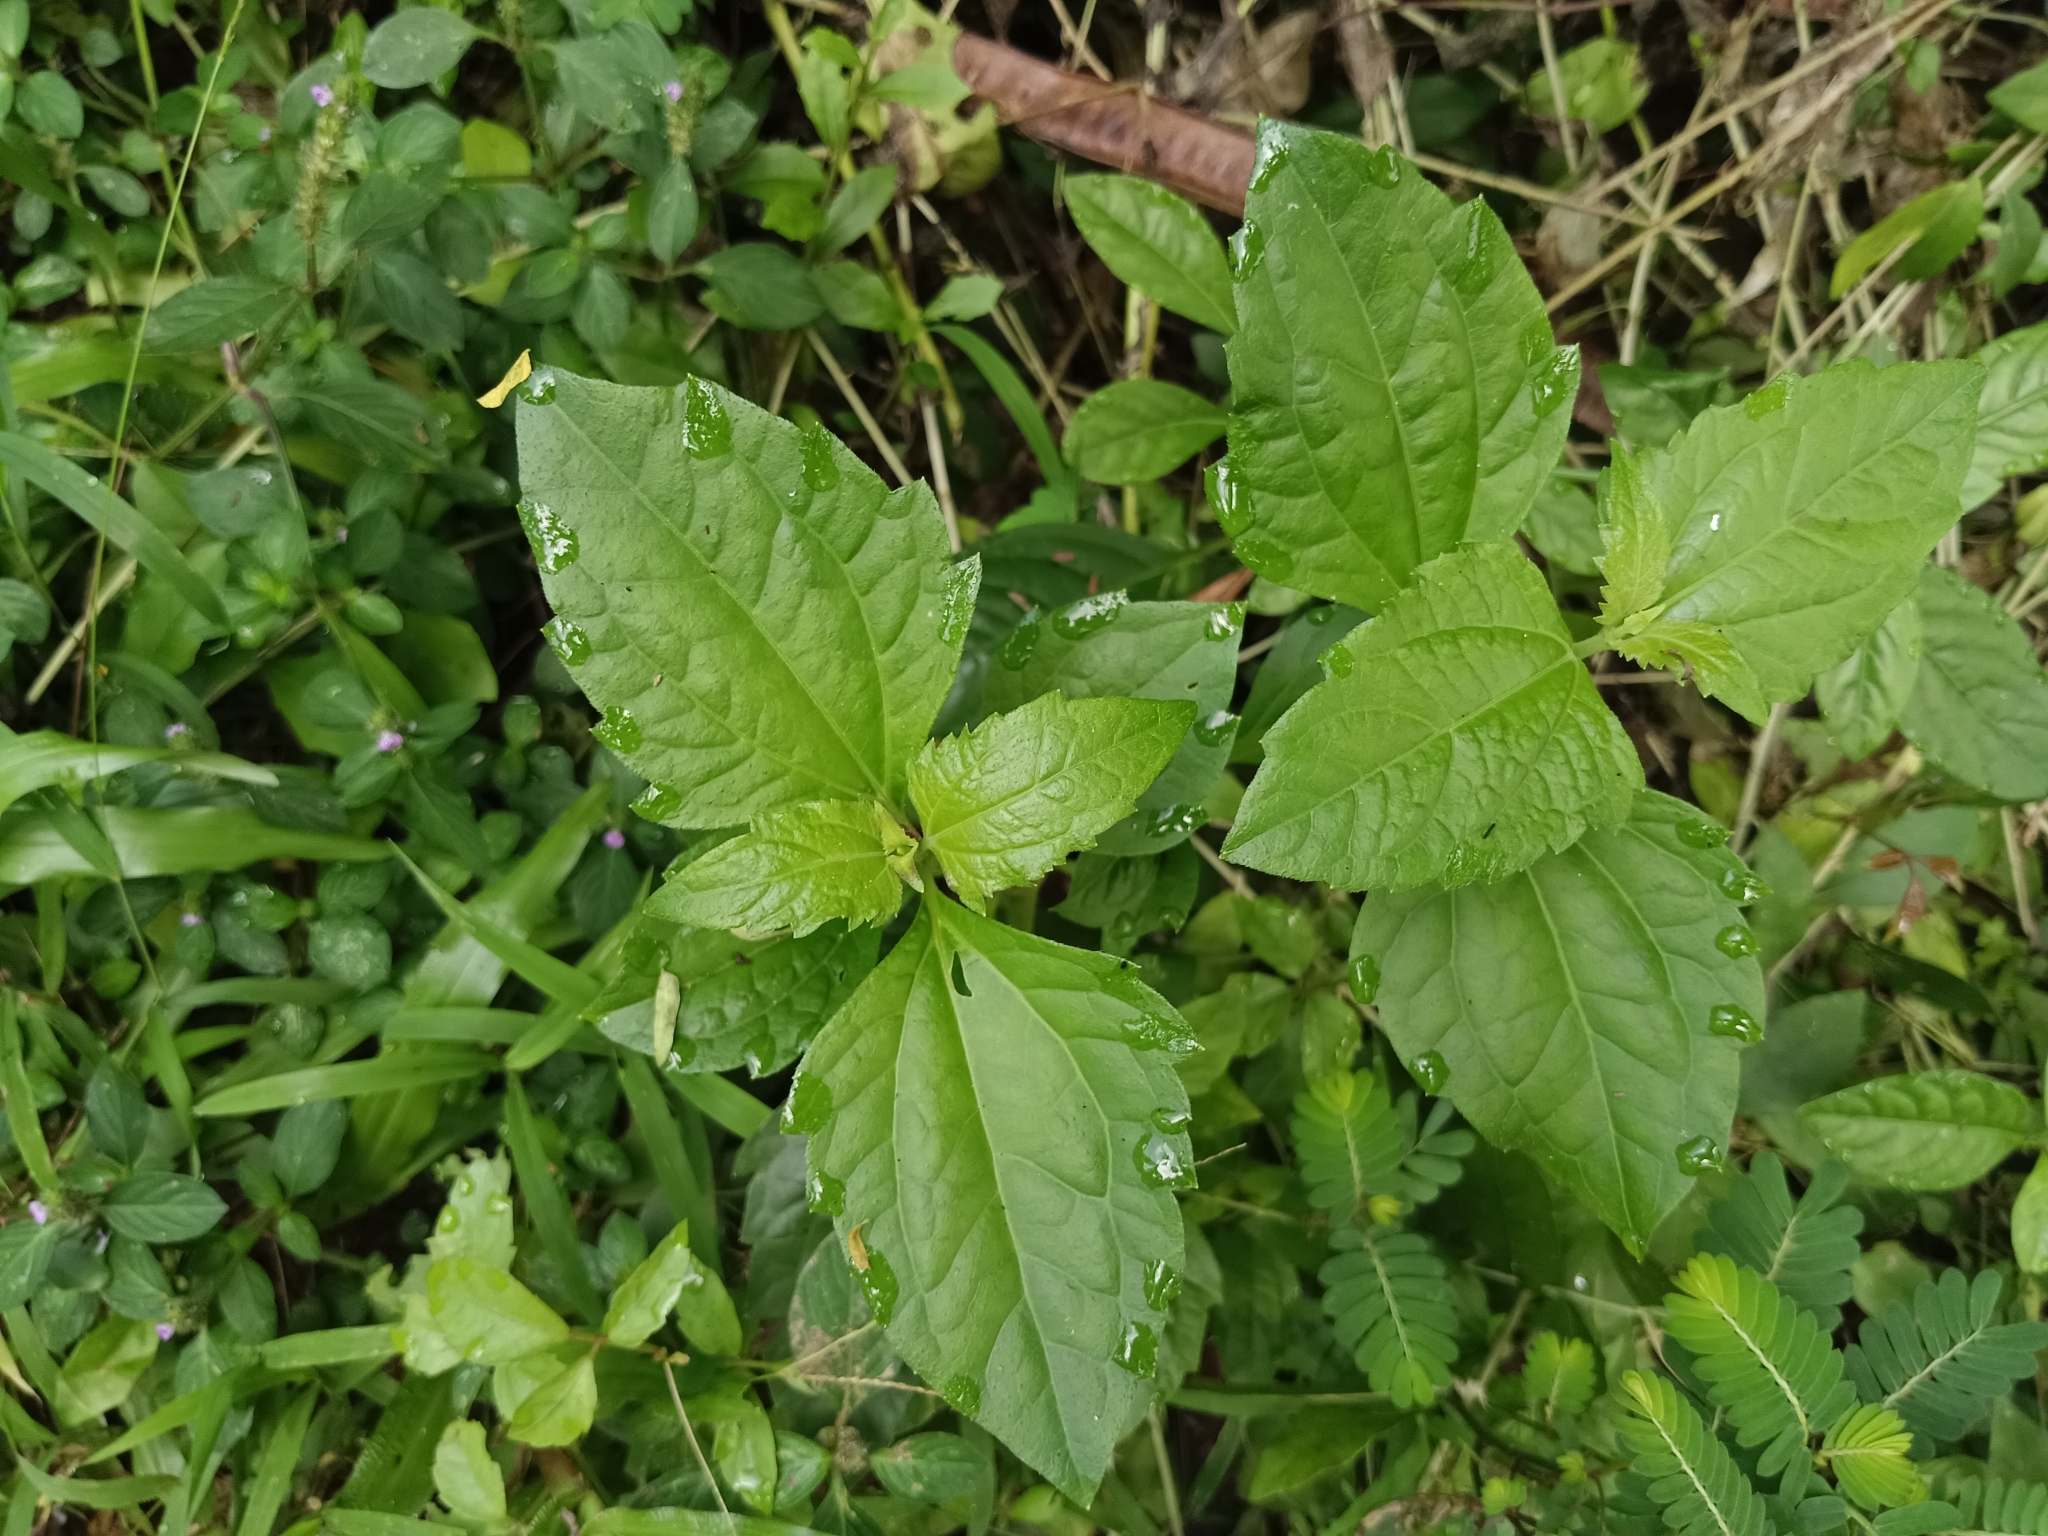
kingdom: Plantae
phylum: Tracheophyta
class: Magnoliopsida
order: Asterales
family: Asteraceae
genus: Chromolaena
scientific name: Chromolaena odorata
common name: Siamweed
